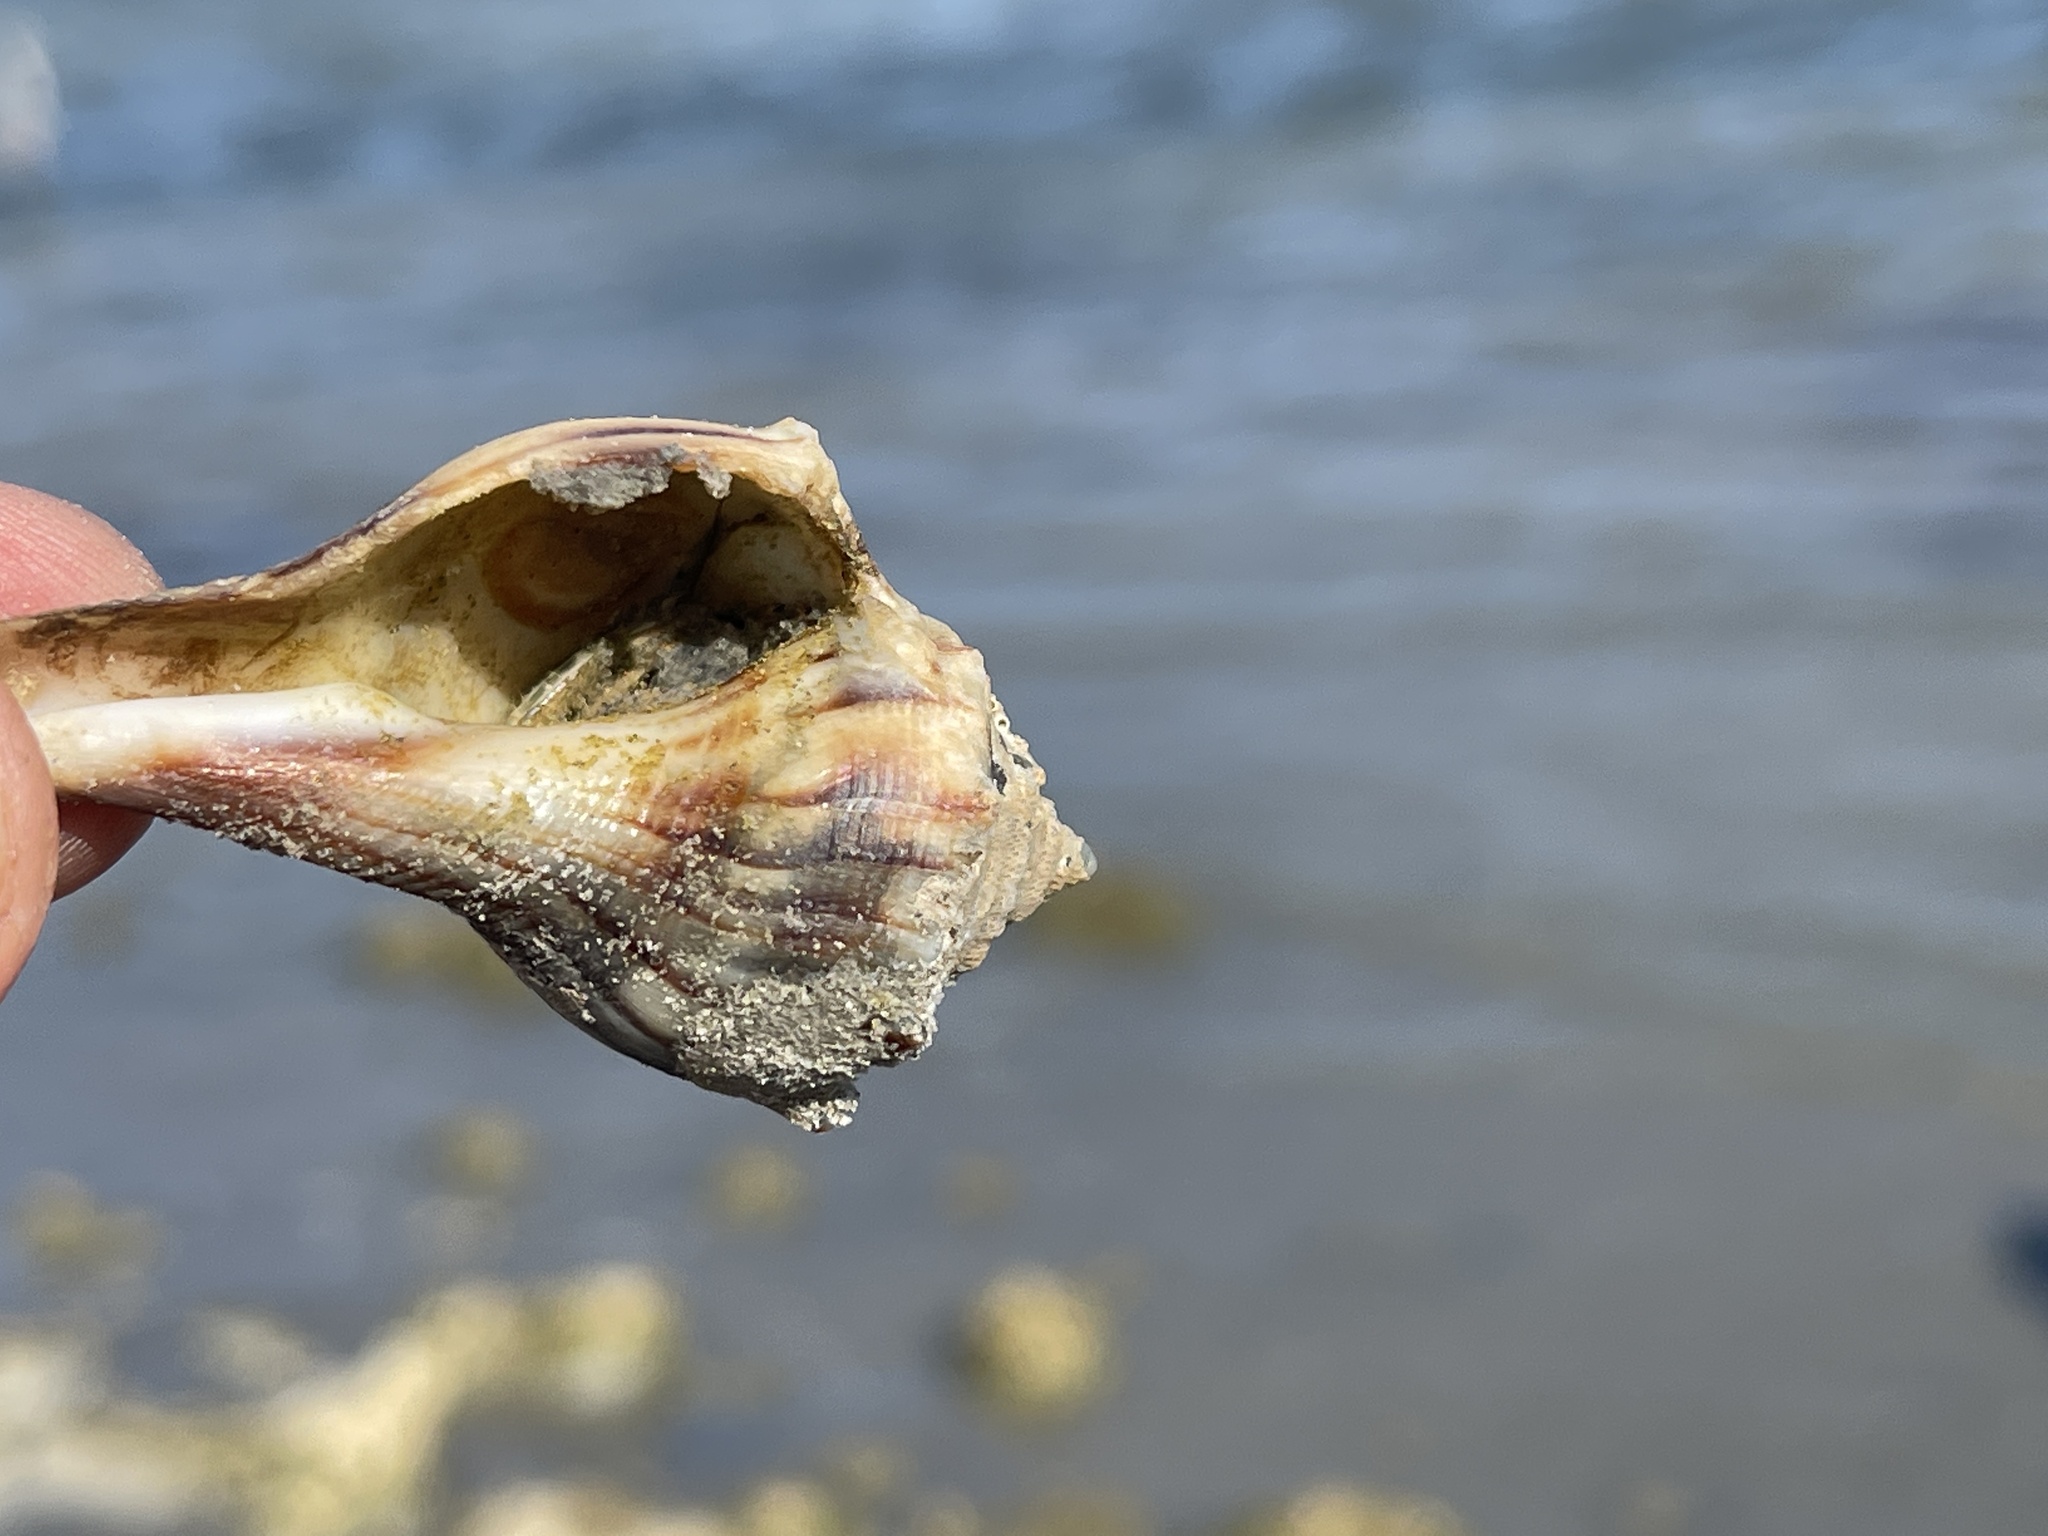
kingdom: Animalia
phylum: Arthropoda
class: Malacostraca
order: Decapoda
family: Diogenidae
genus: Clibanarius
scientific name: Clibanarius vittatus
